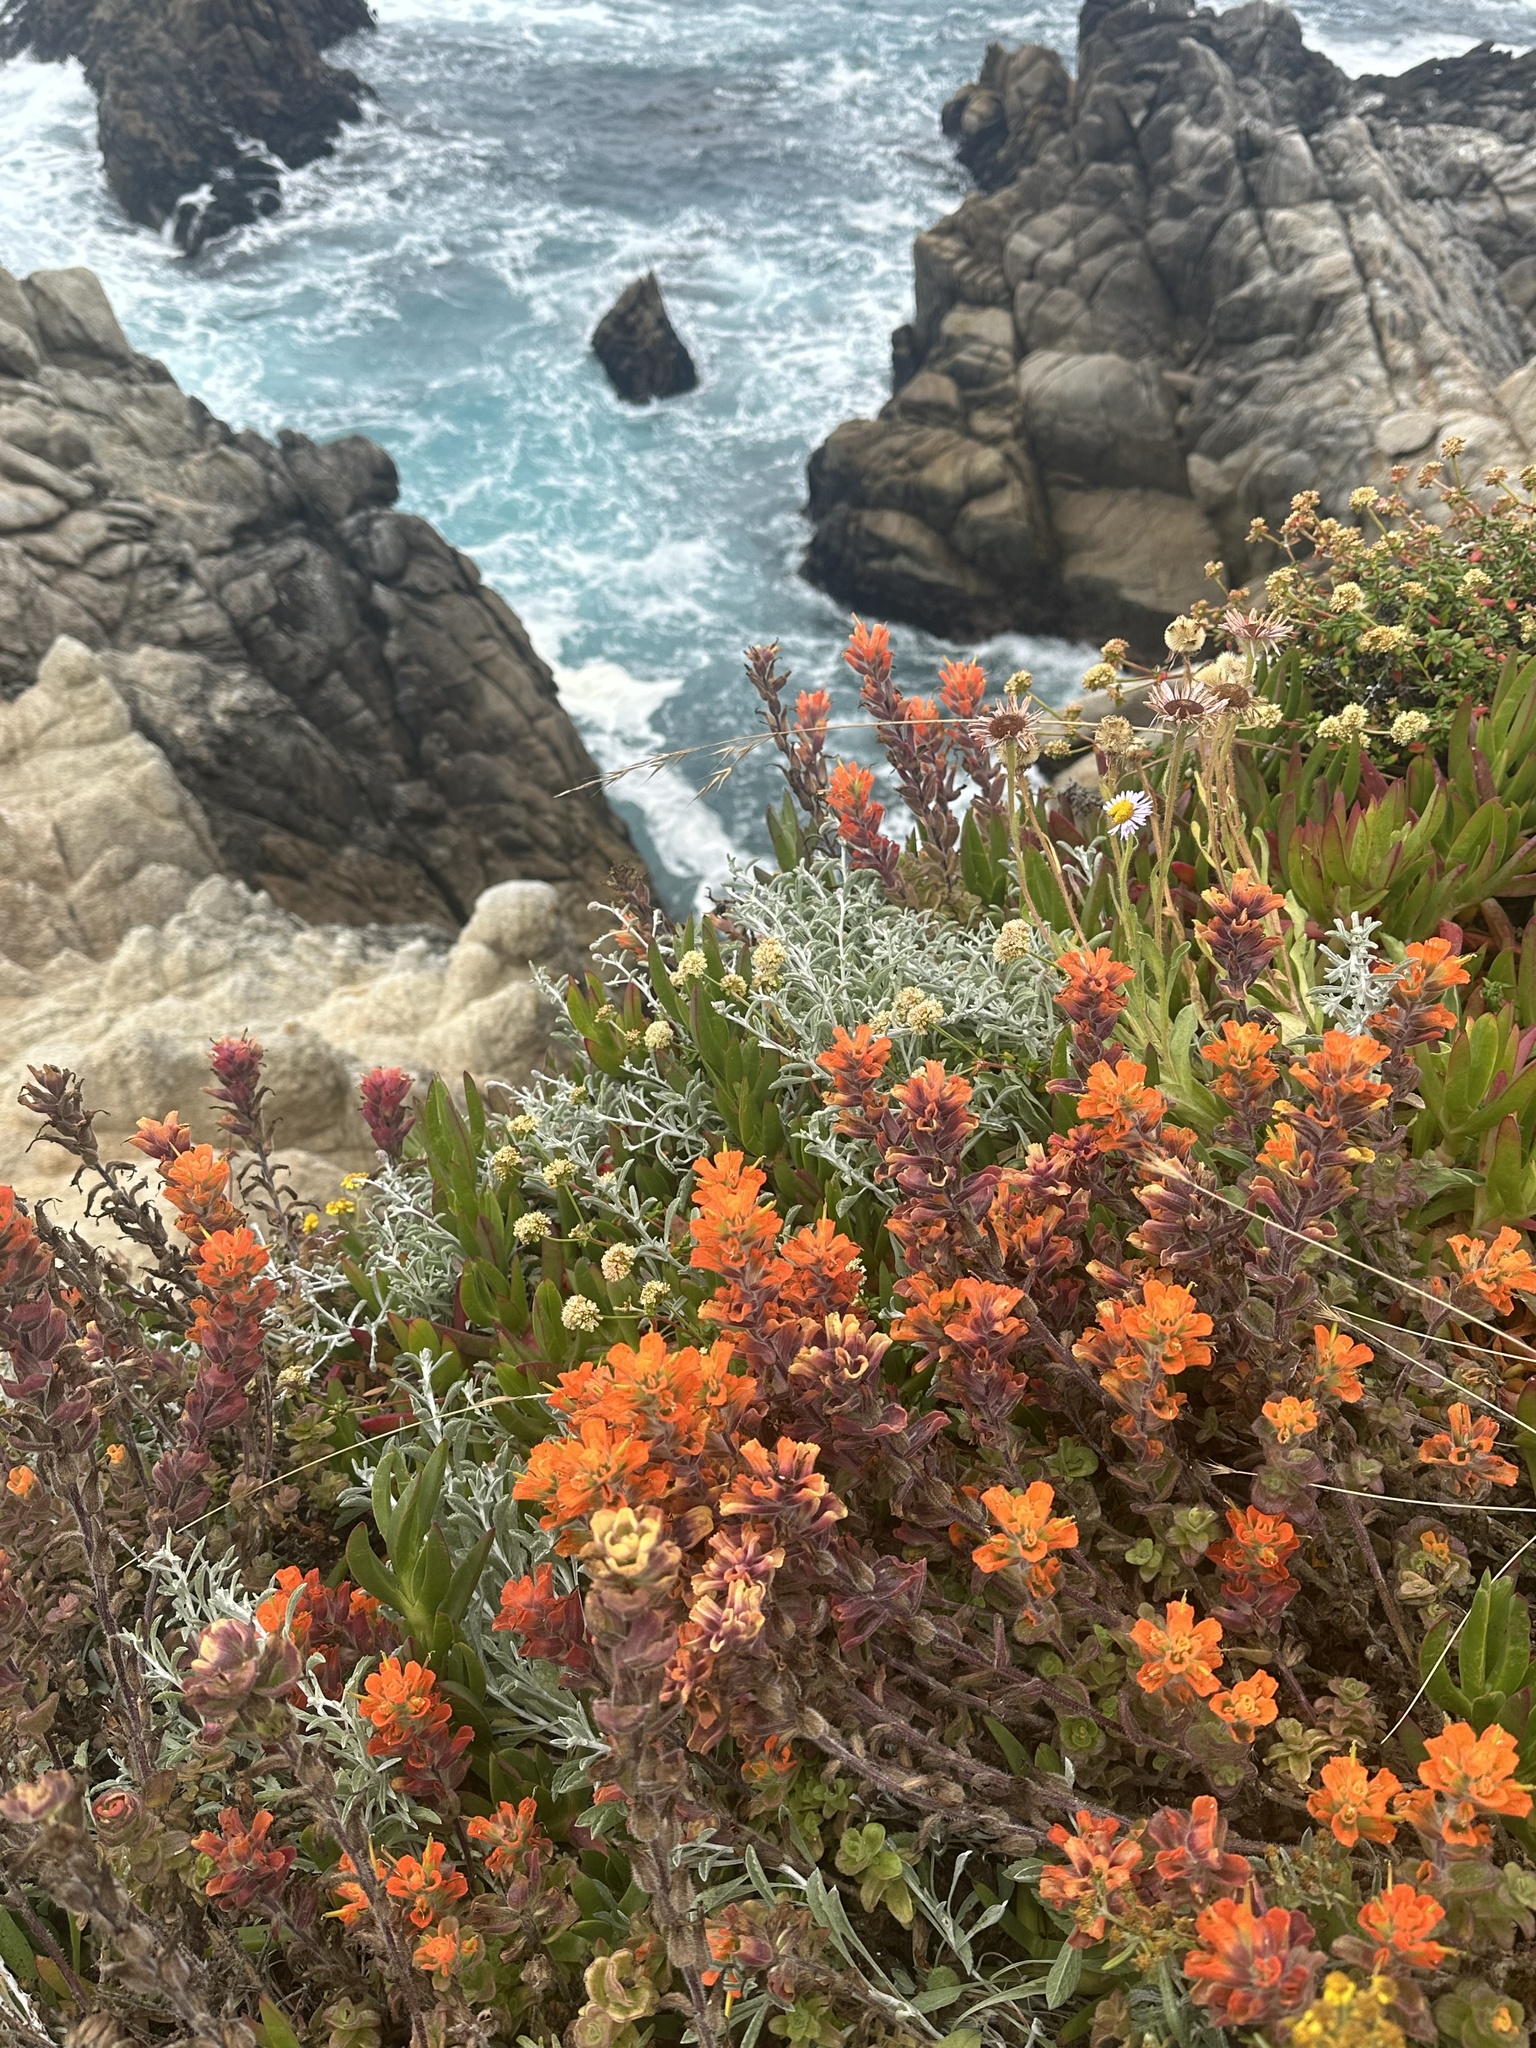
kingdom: Plantae
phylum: Tracheophyta
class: Magnoliopsida
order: Lamiales
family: Orobanchaceae
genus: Castilleja
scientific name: Castilleja latifolia
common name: Monterey indian paintbrush
